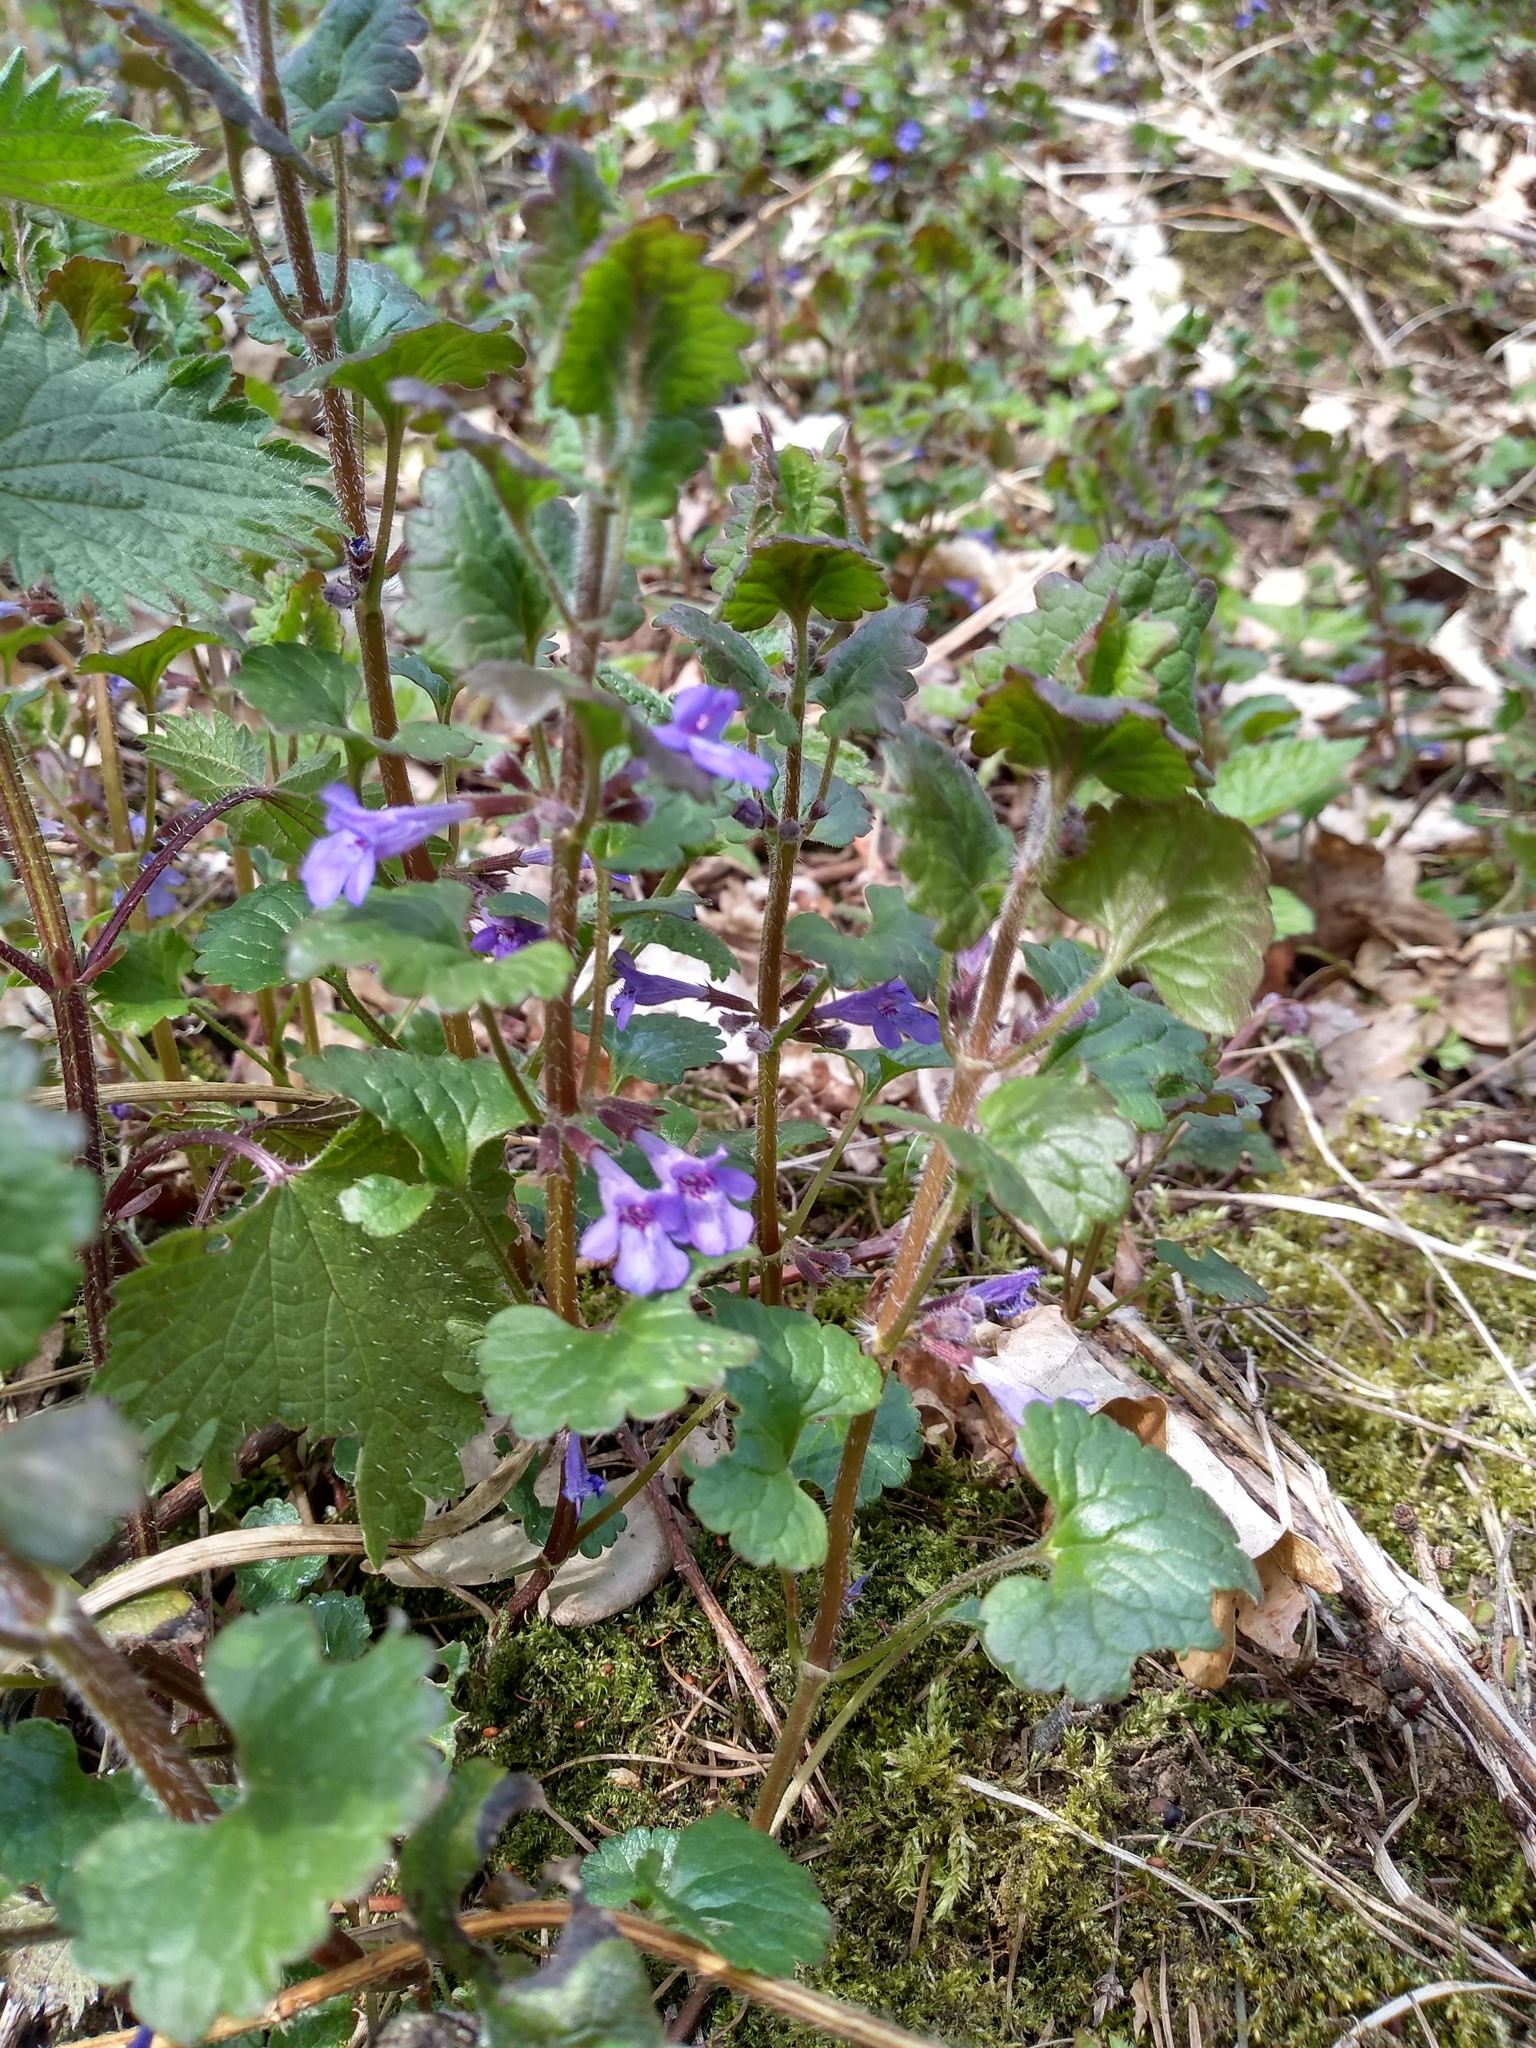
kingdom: Plantae
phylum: Tracheophyta
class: Magnoliopsida
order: Lamiales
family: Lamiaceae
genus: Glechoma
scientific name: Glechoma hederacea
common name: Ground ivy
